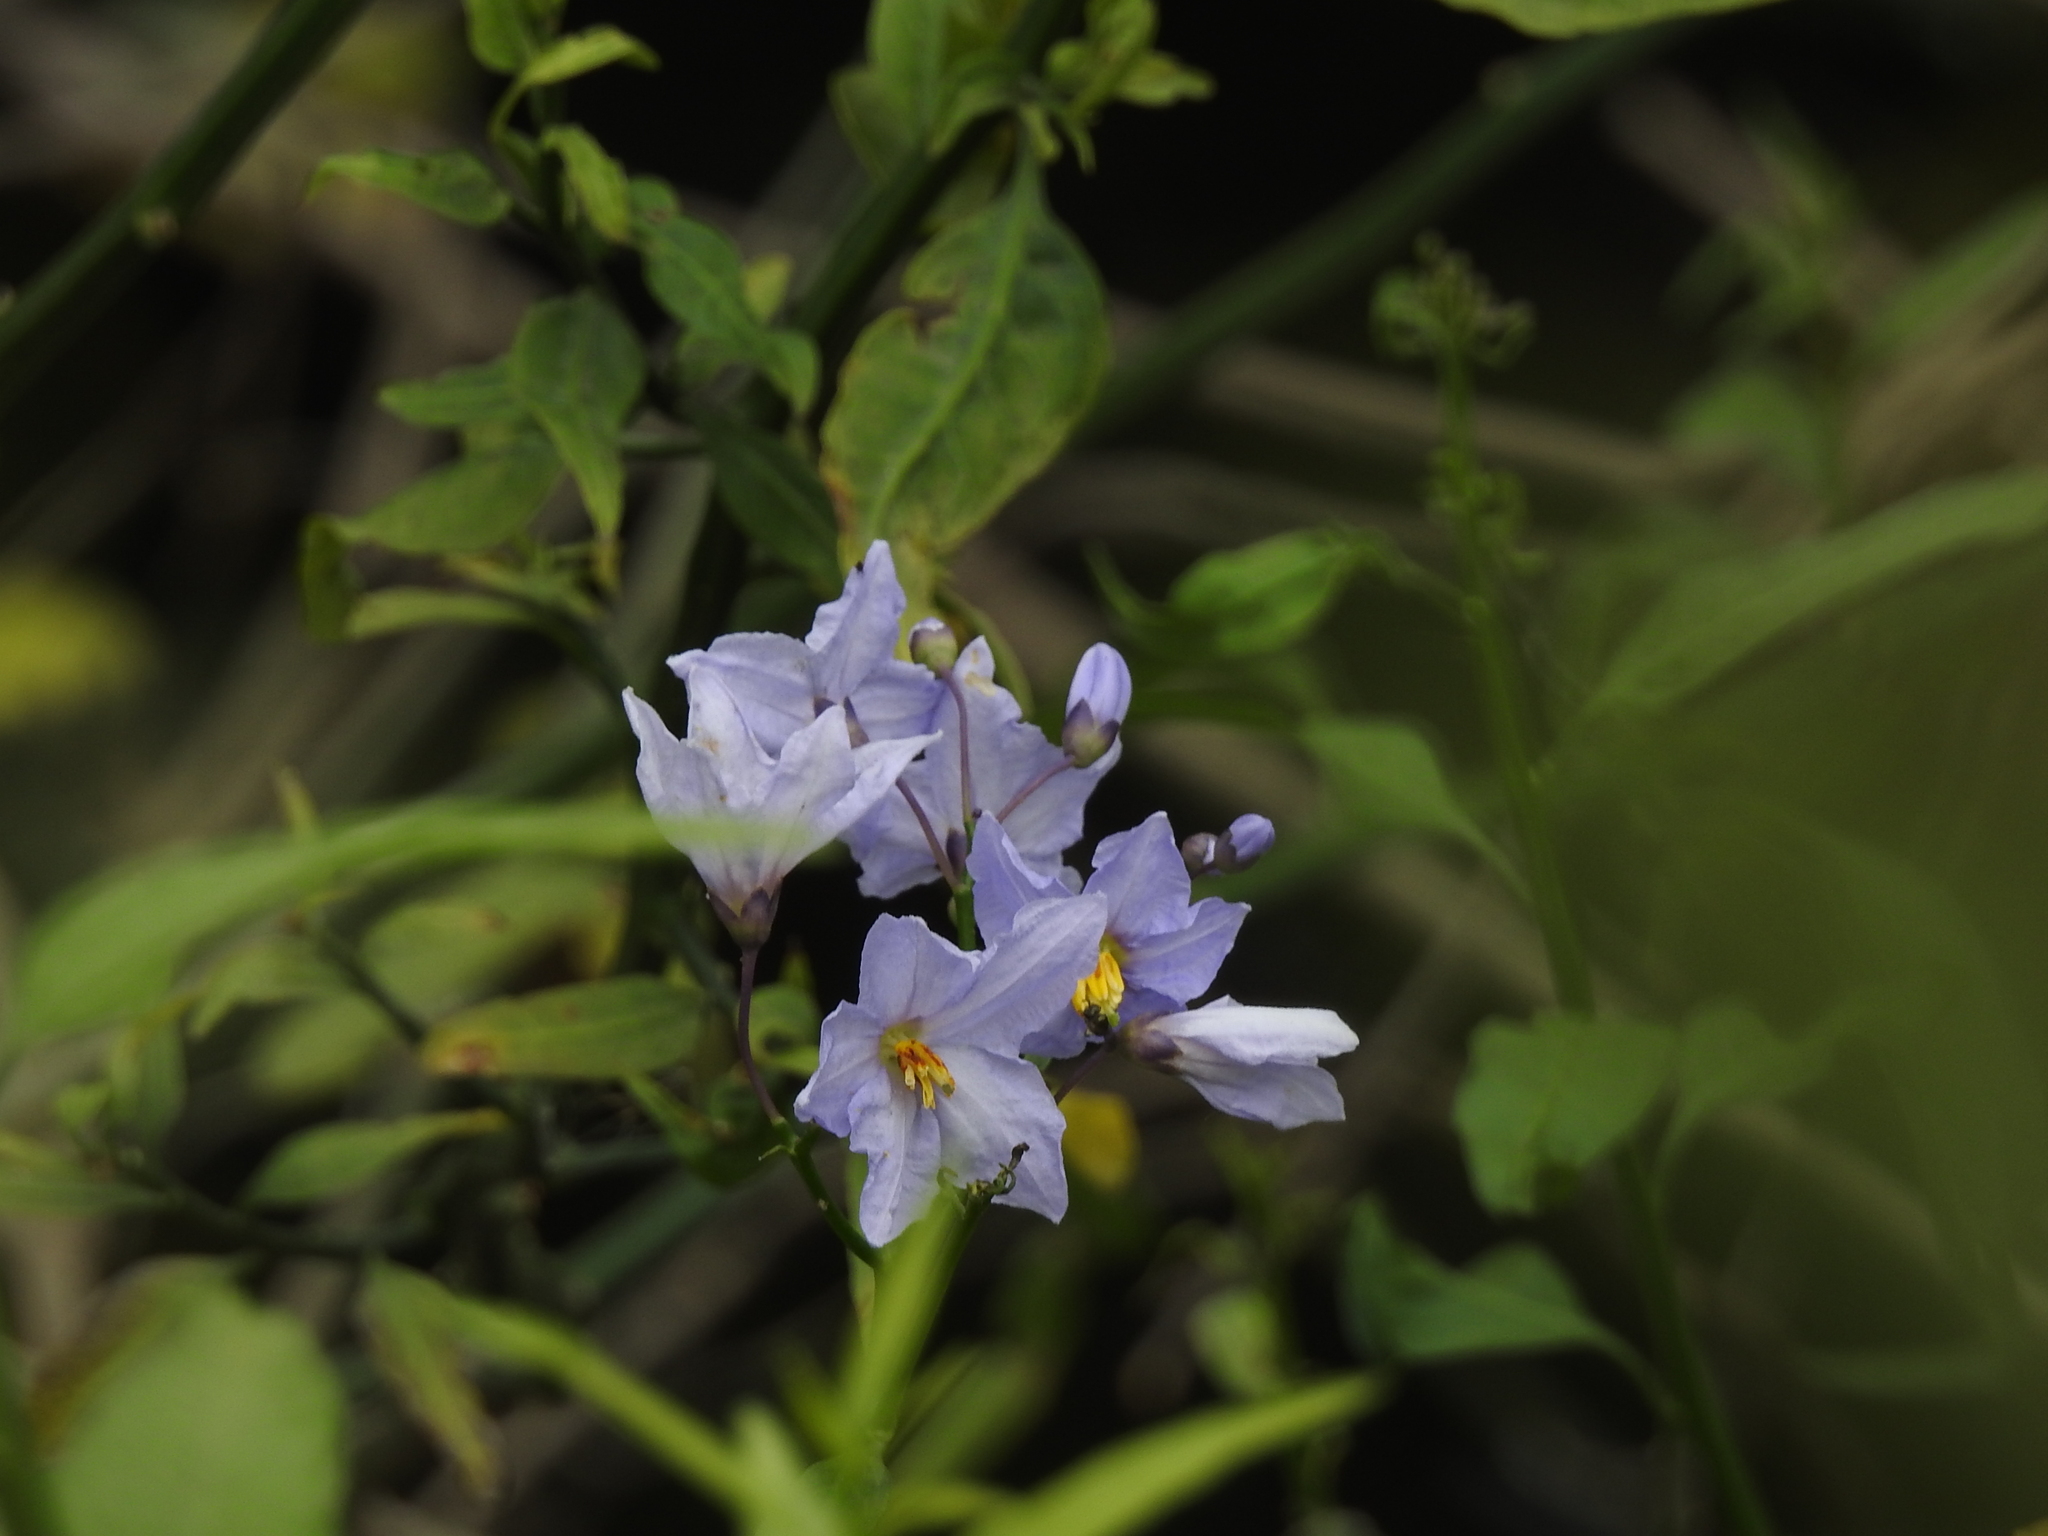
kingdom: Plantae
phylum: Tracheophyta
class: Magnoliopsida
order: Solanales
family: Solanaceae
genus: Solanum
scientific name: Solanum amygdalifolium
